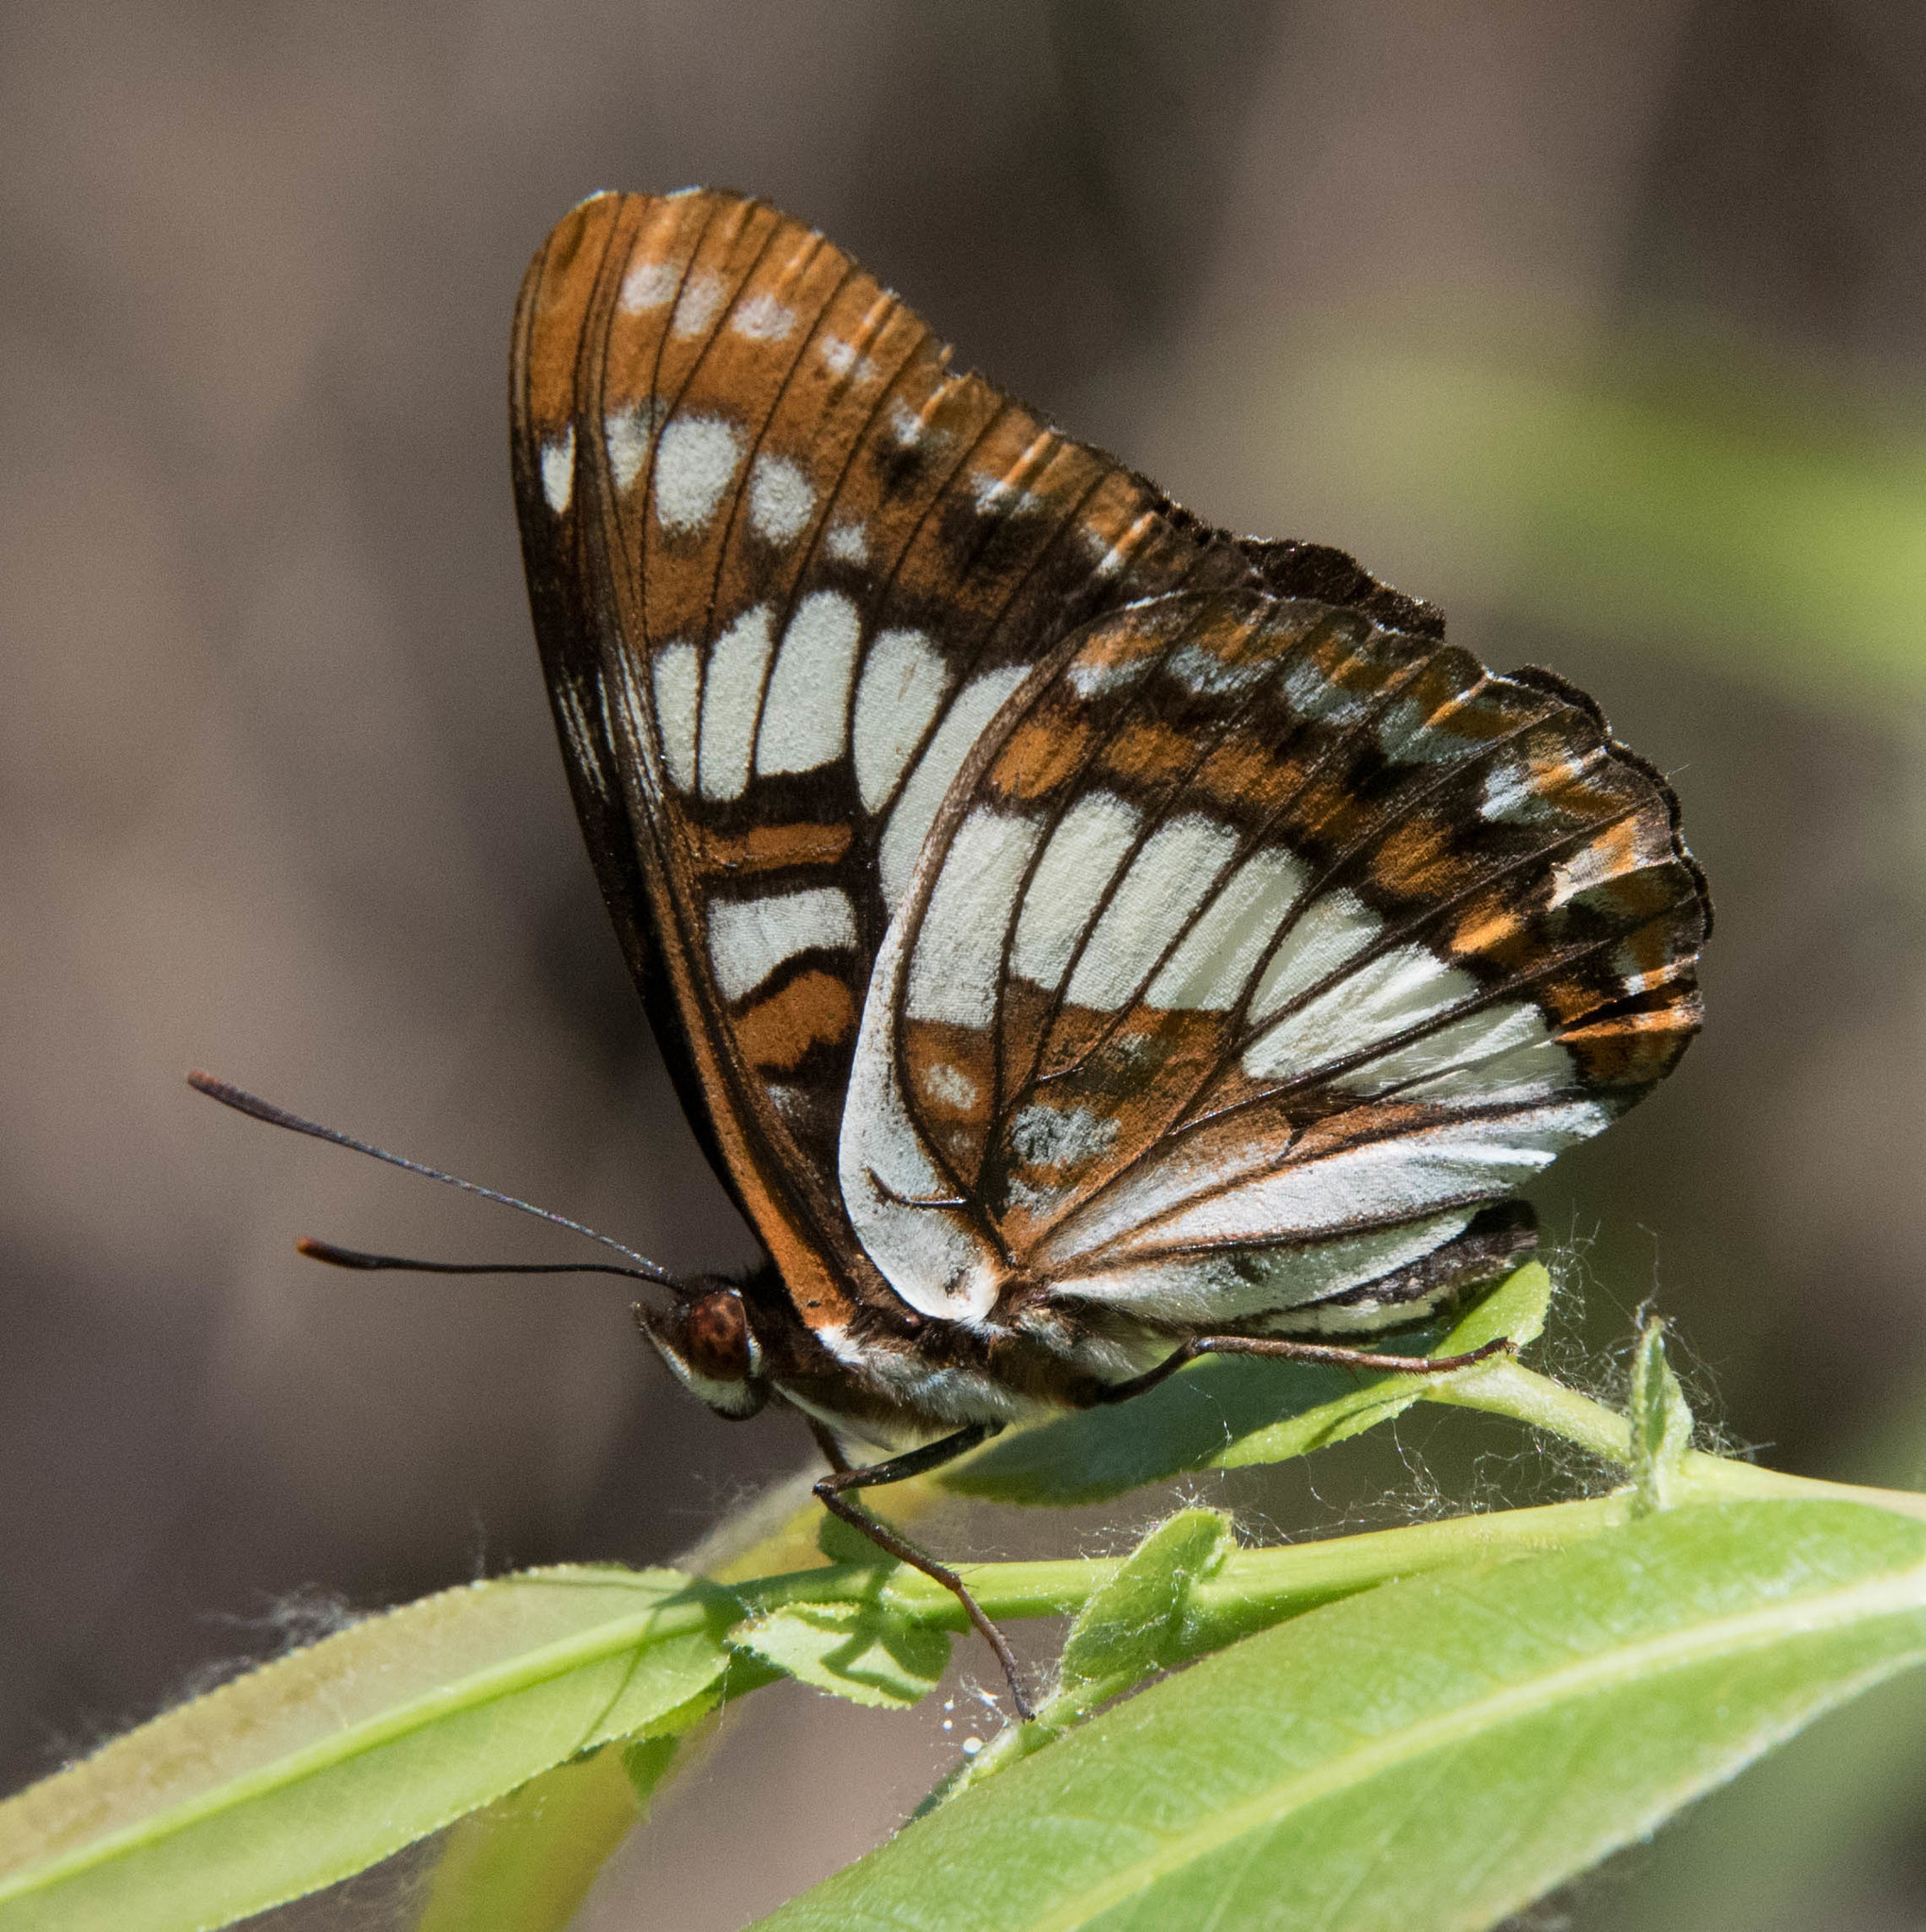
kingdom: Animalia
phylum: Arthropoda
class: Insecta
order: Lepidoptera
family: Nymphalidae
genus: Limenitis
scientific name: Limenitis lorquini
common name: Lorquin's admiral
